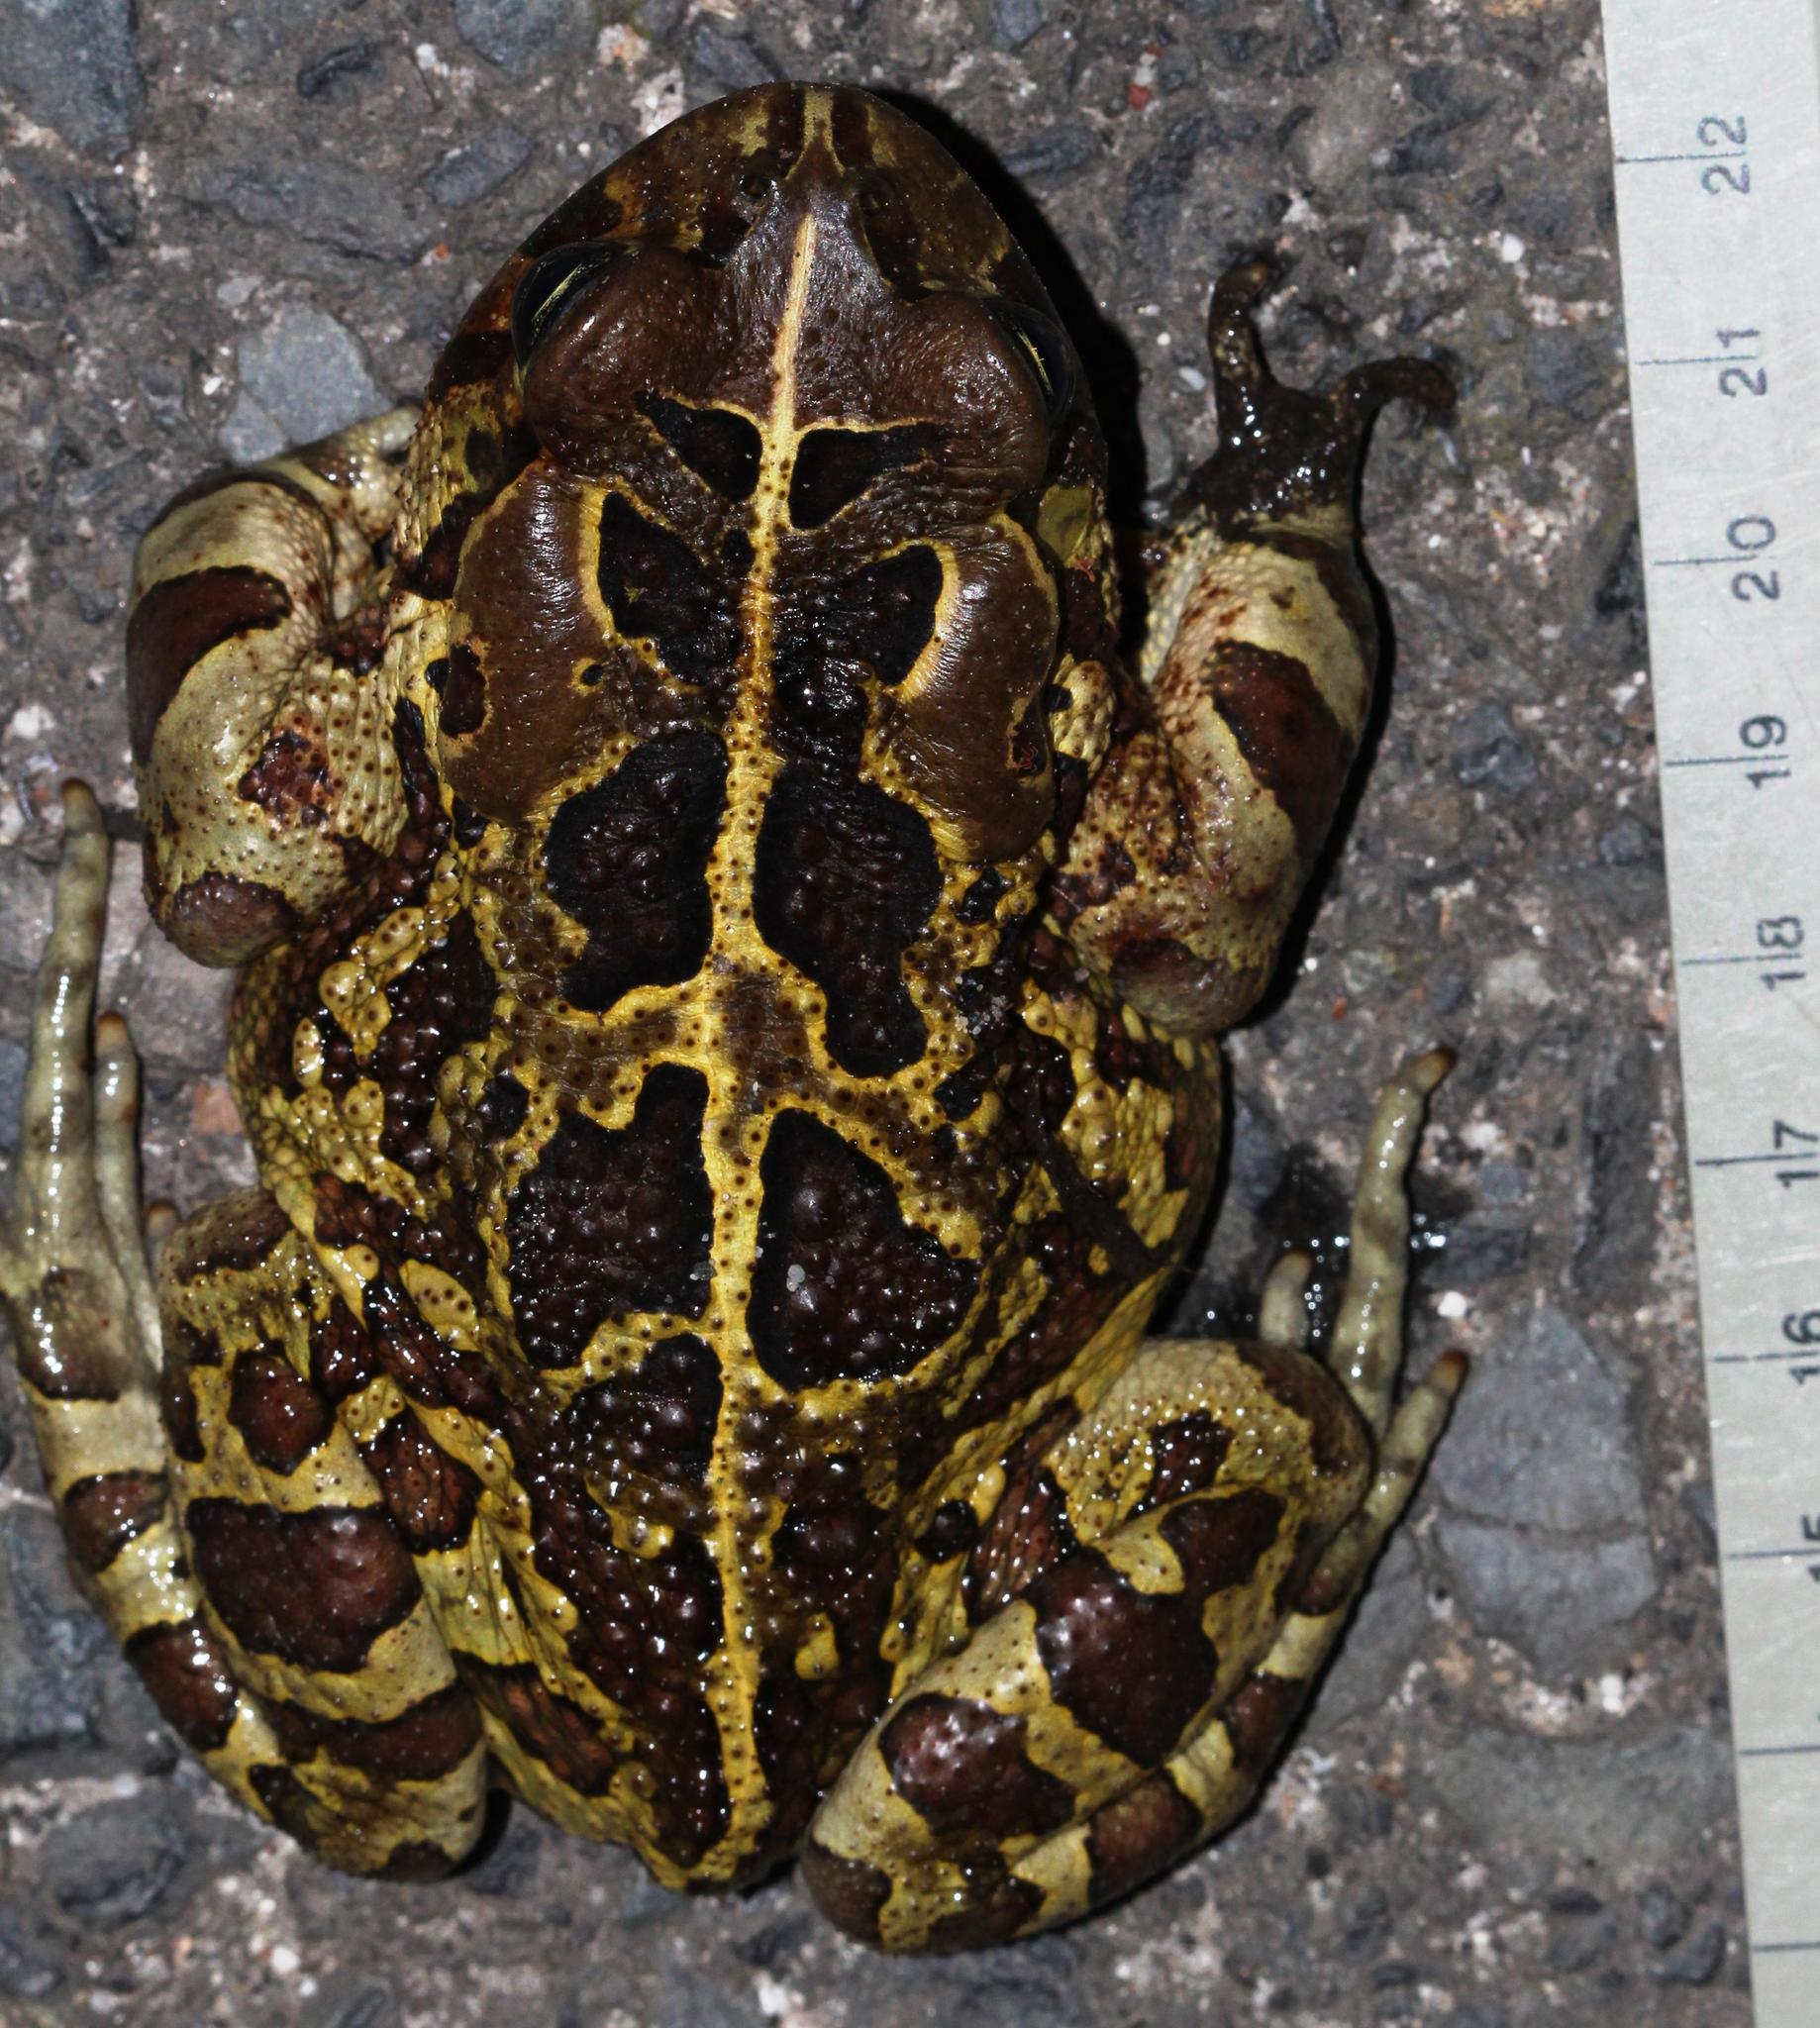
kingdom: Animalia
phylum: Chordata
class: Amphibia
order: Anura
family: Bufonidae
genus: Sclerophrys
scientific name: Sclerophrys pantherina
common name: Panther toad
